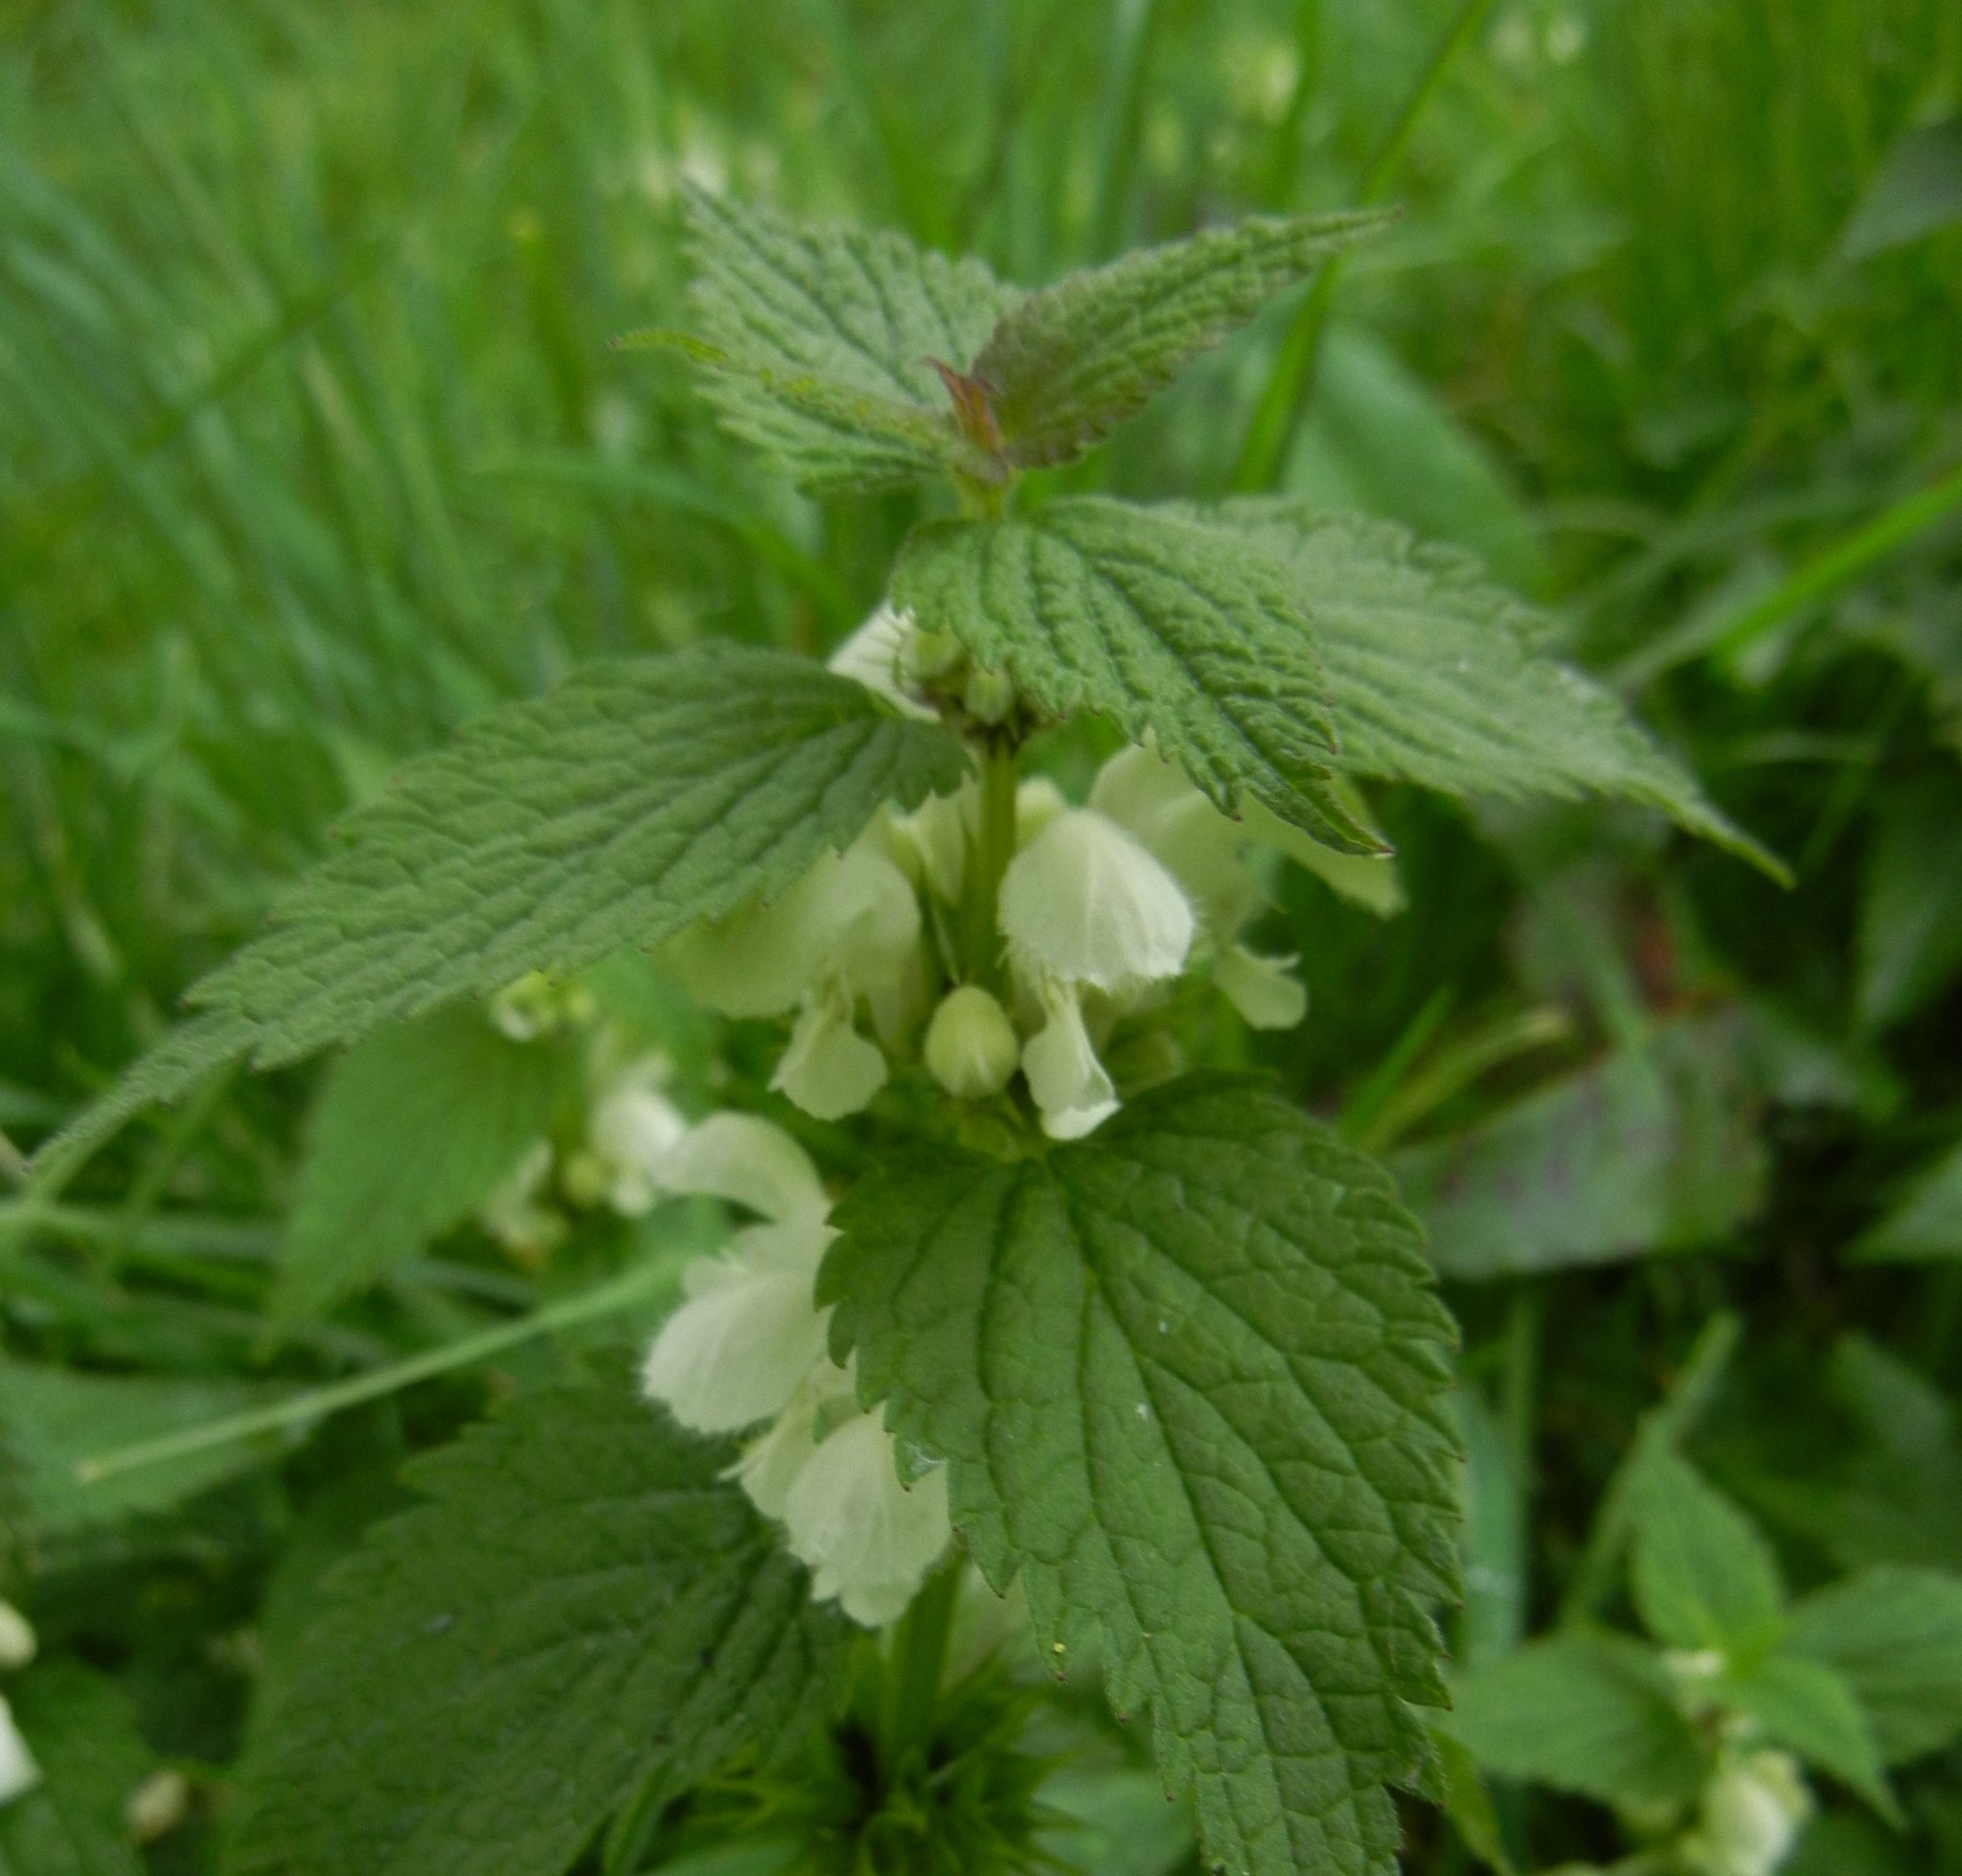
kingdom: Plantae
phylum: Tracheophyta
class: Magnoliopsida
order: Lamiales
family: Lamiaceae
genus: Lamium
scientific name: Lamium album
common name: White dead-nettle
